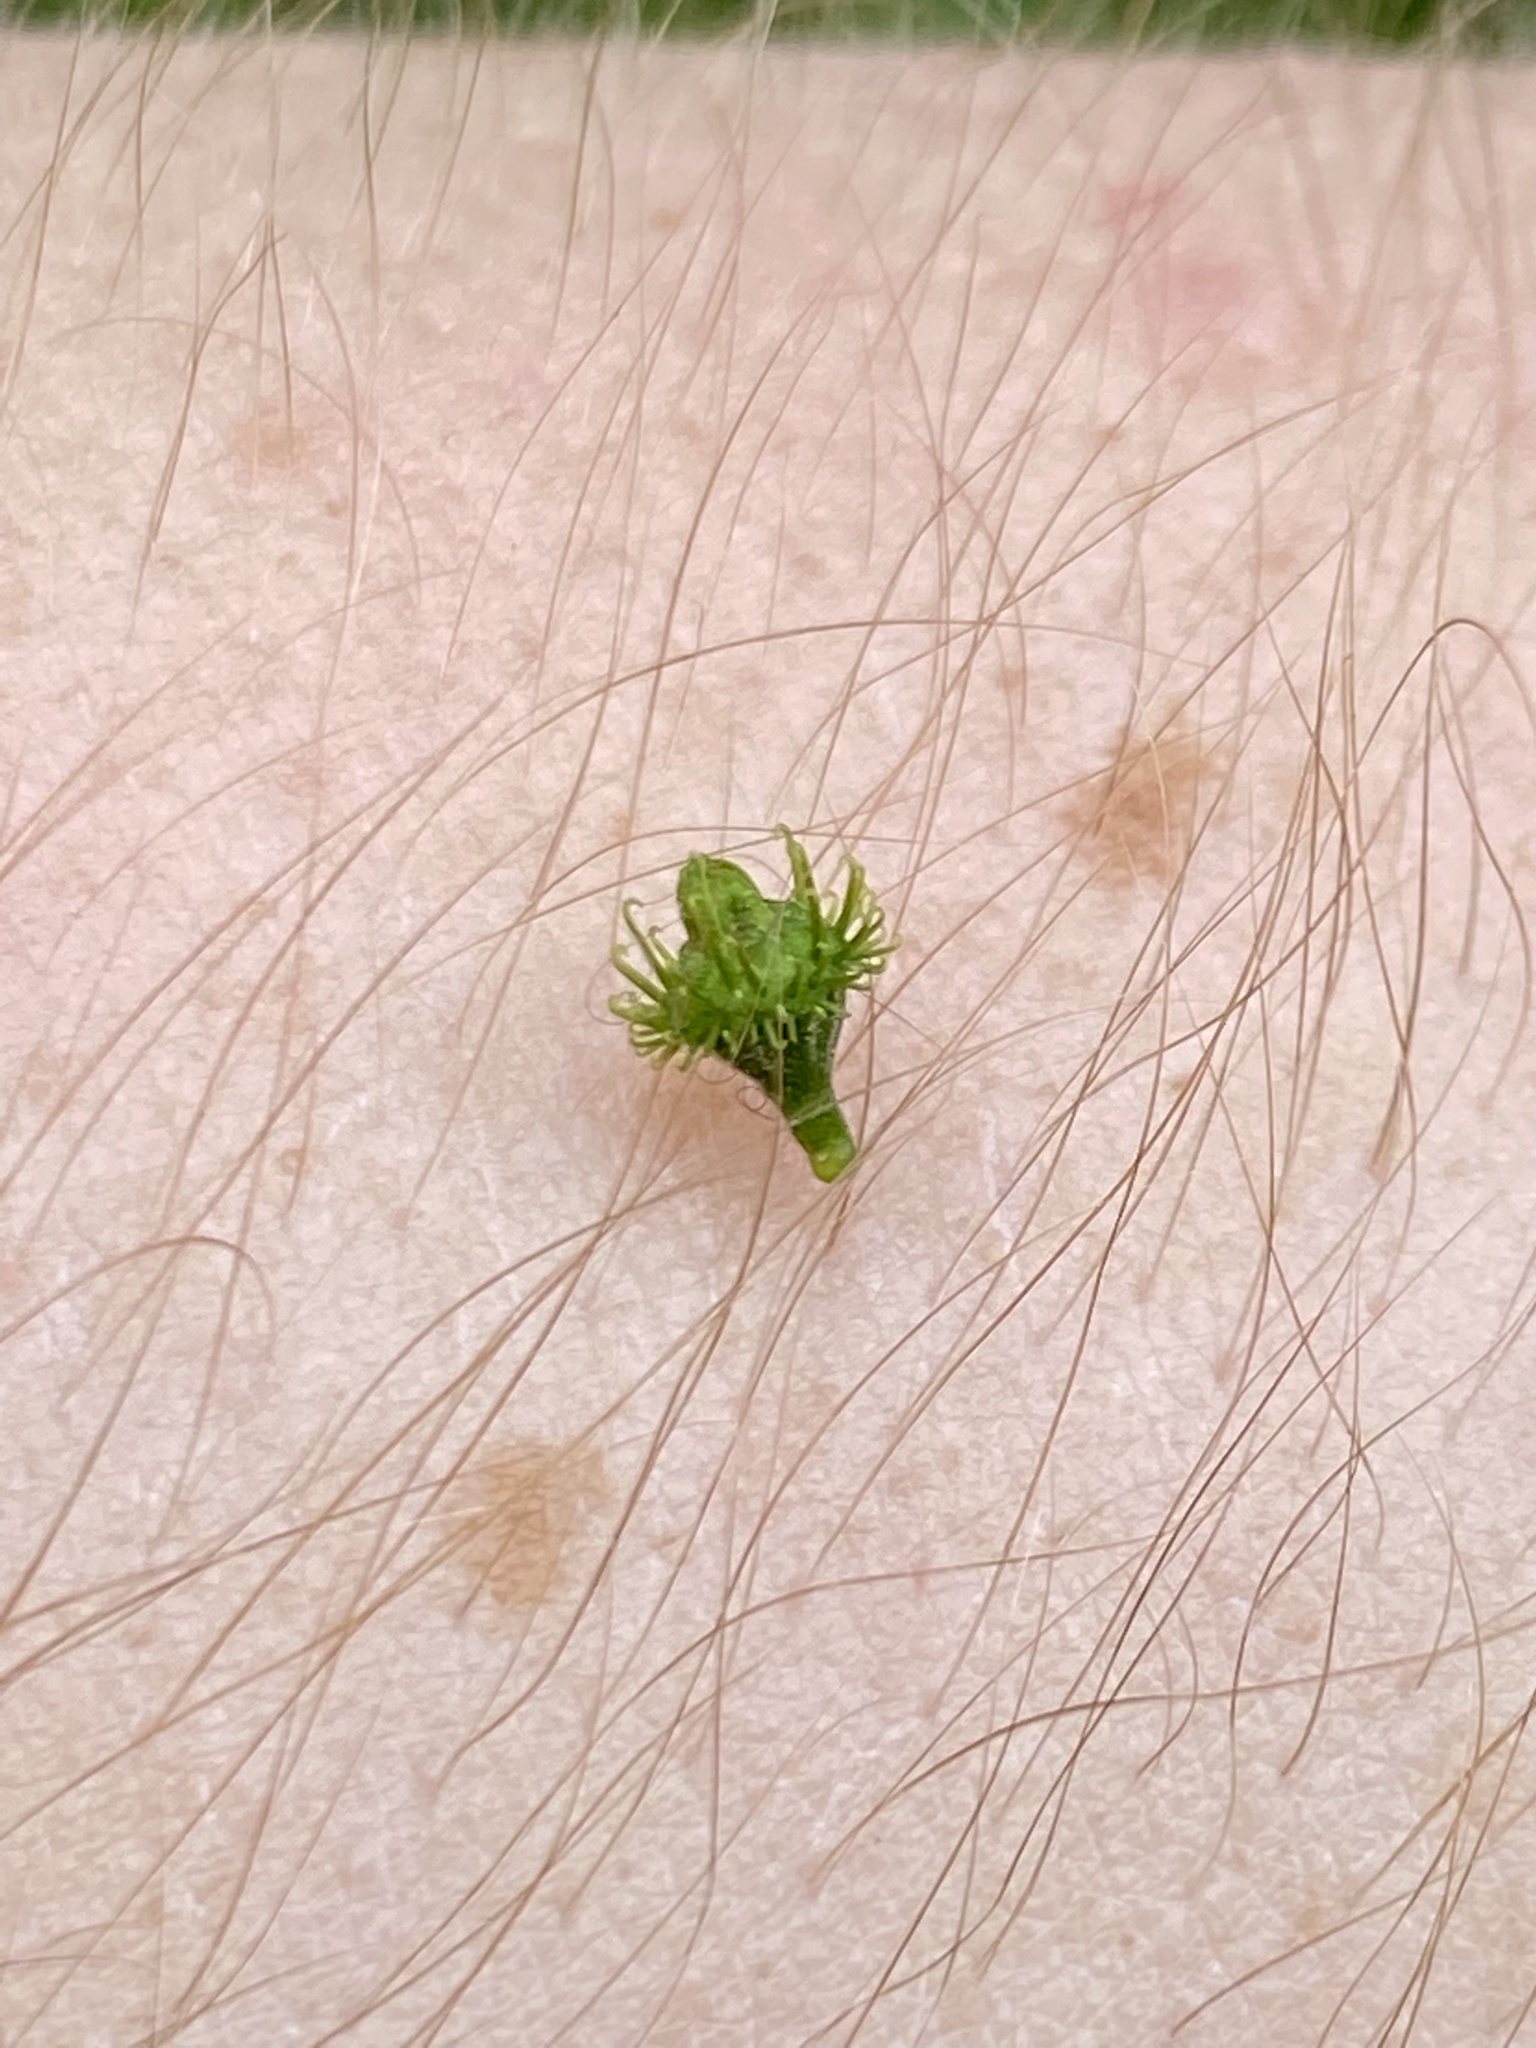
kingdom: Plantae
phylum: Tracheophyta
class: Magnoliopsida
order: Rosales
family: Rosaceae
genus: Agrimonia
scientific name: Agrimonia parviflora
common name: Harvest-lice
